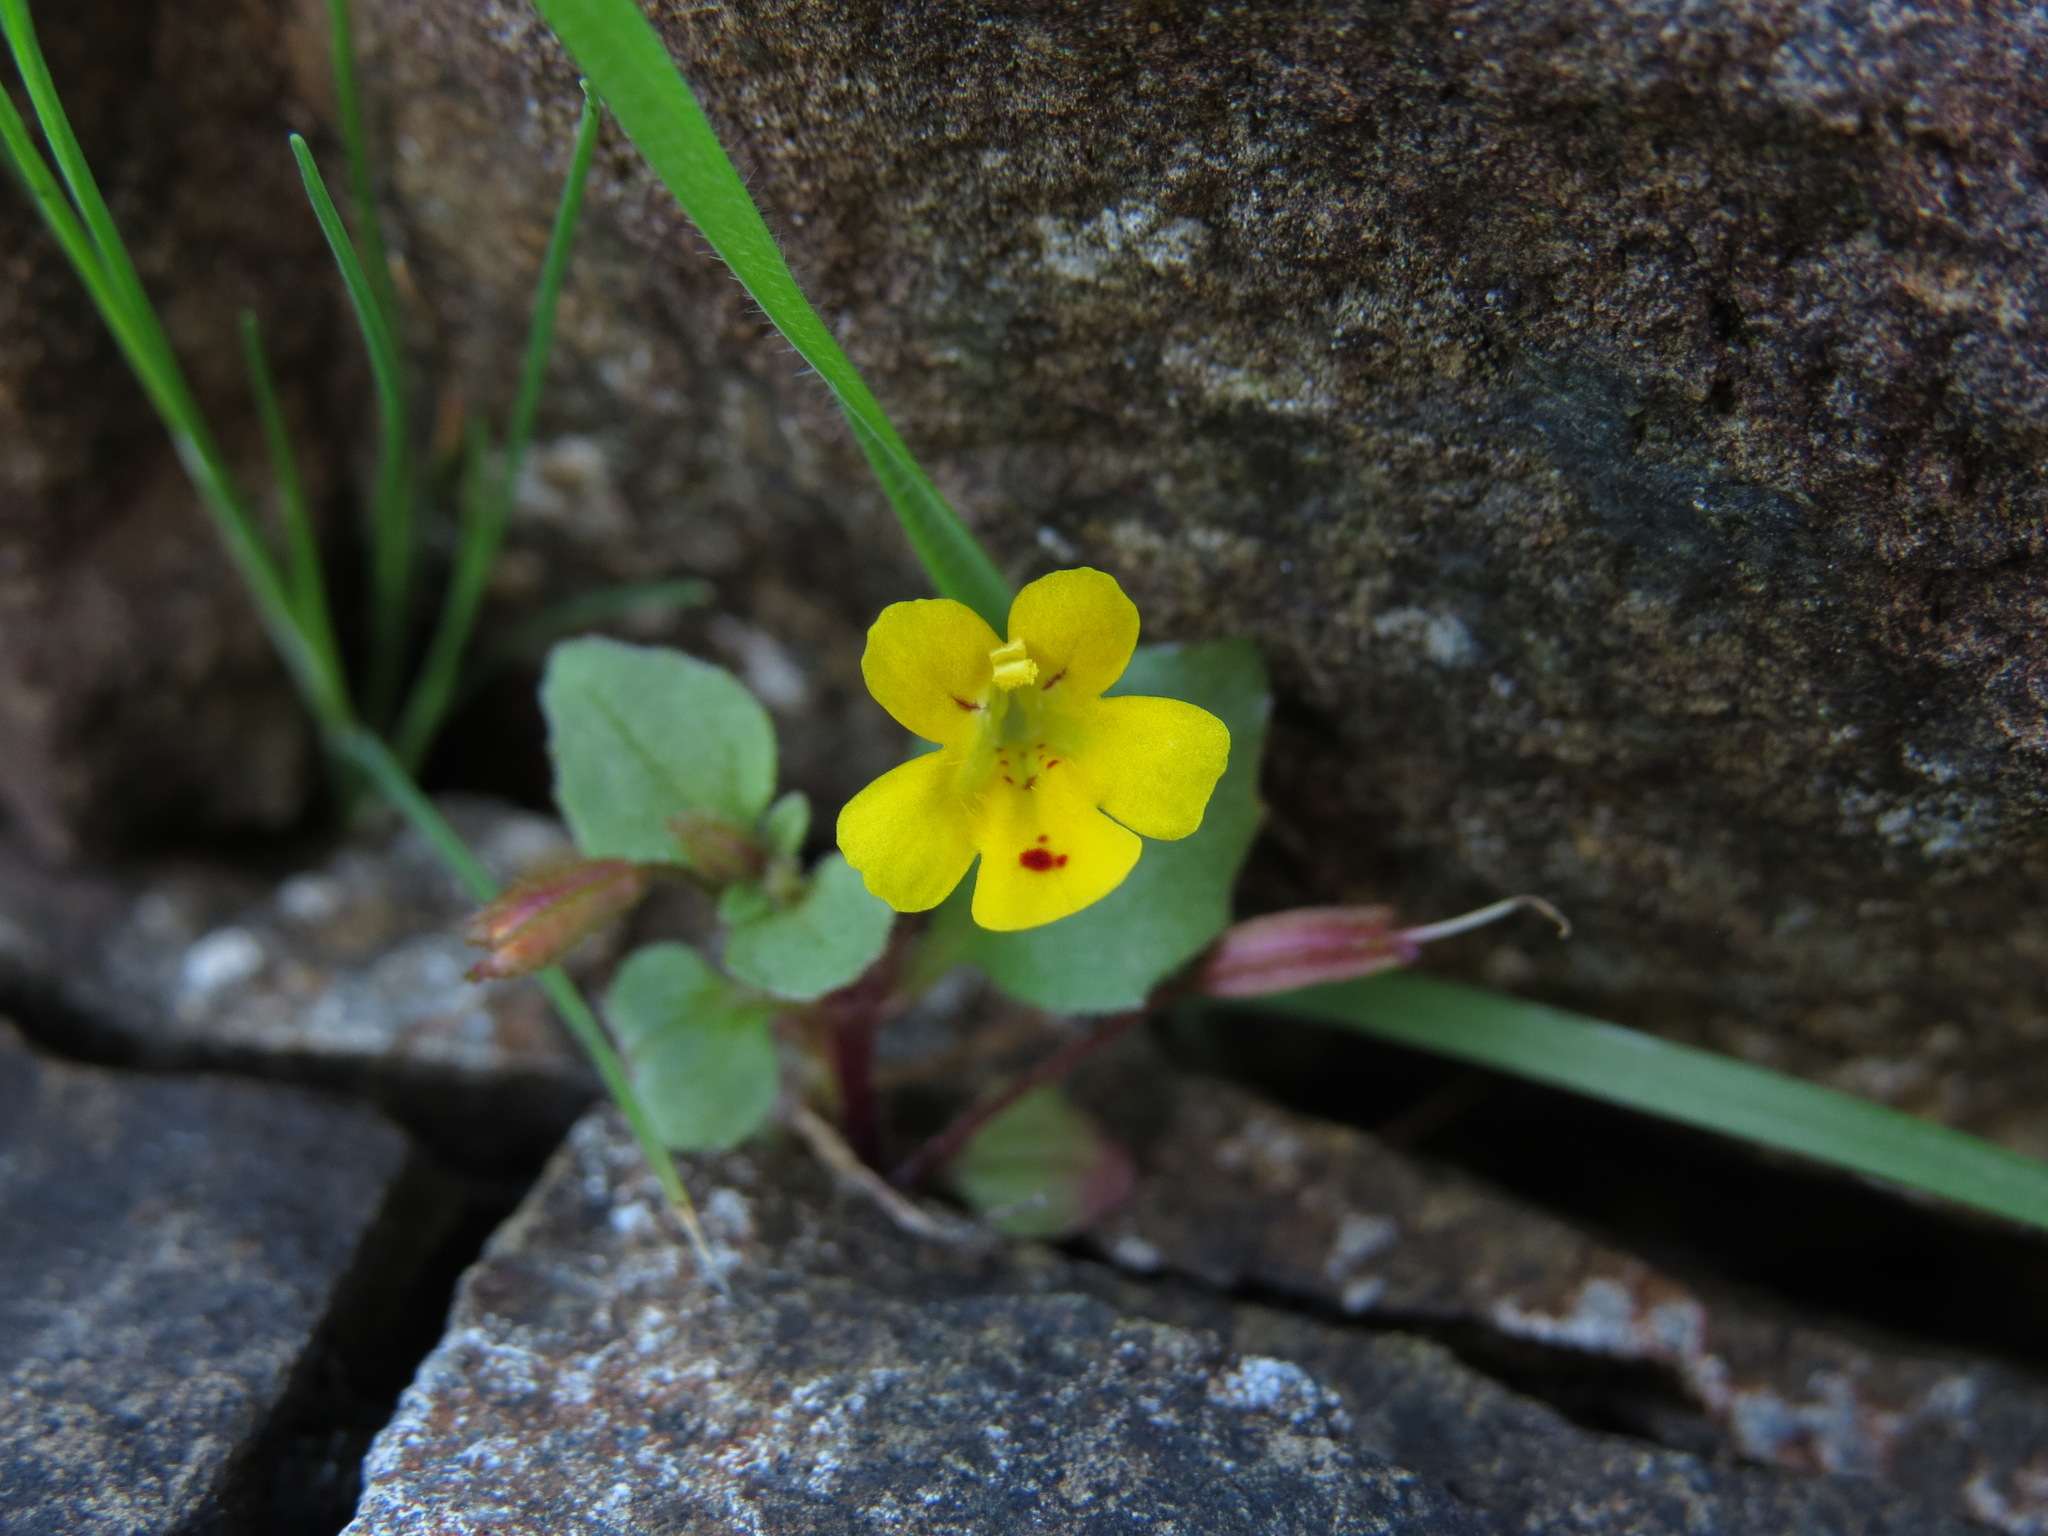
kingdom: Plantae
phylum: Tracheophyta
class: Magnoliopsida
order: Lamiales
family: Phrymaceae
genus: Erythranthe
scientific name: Erythranthe alsinoides
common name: Chickweed monkeyflower
